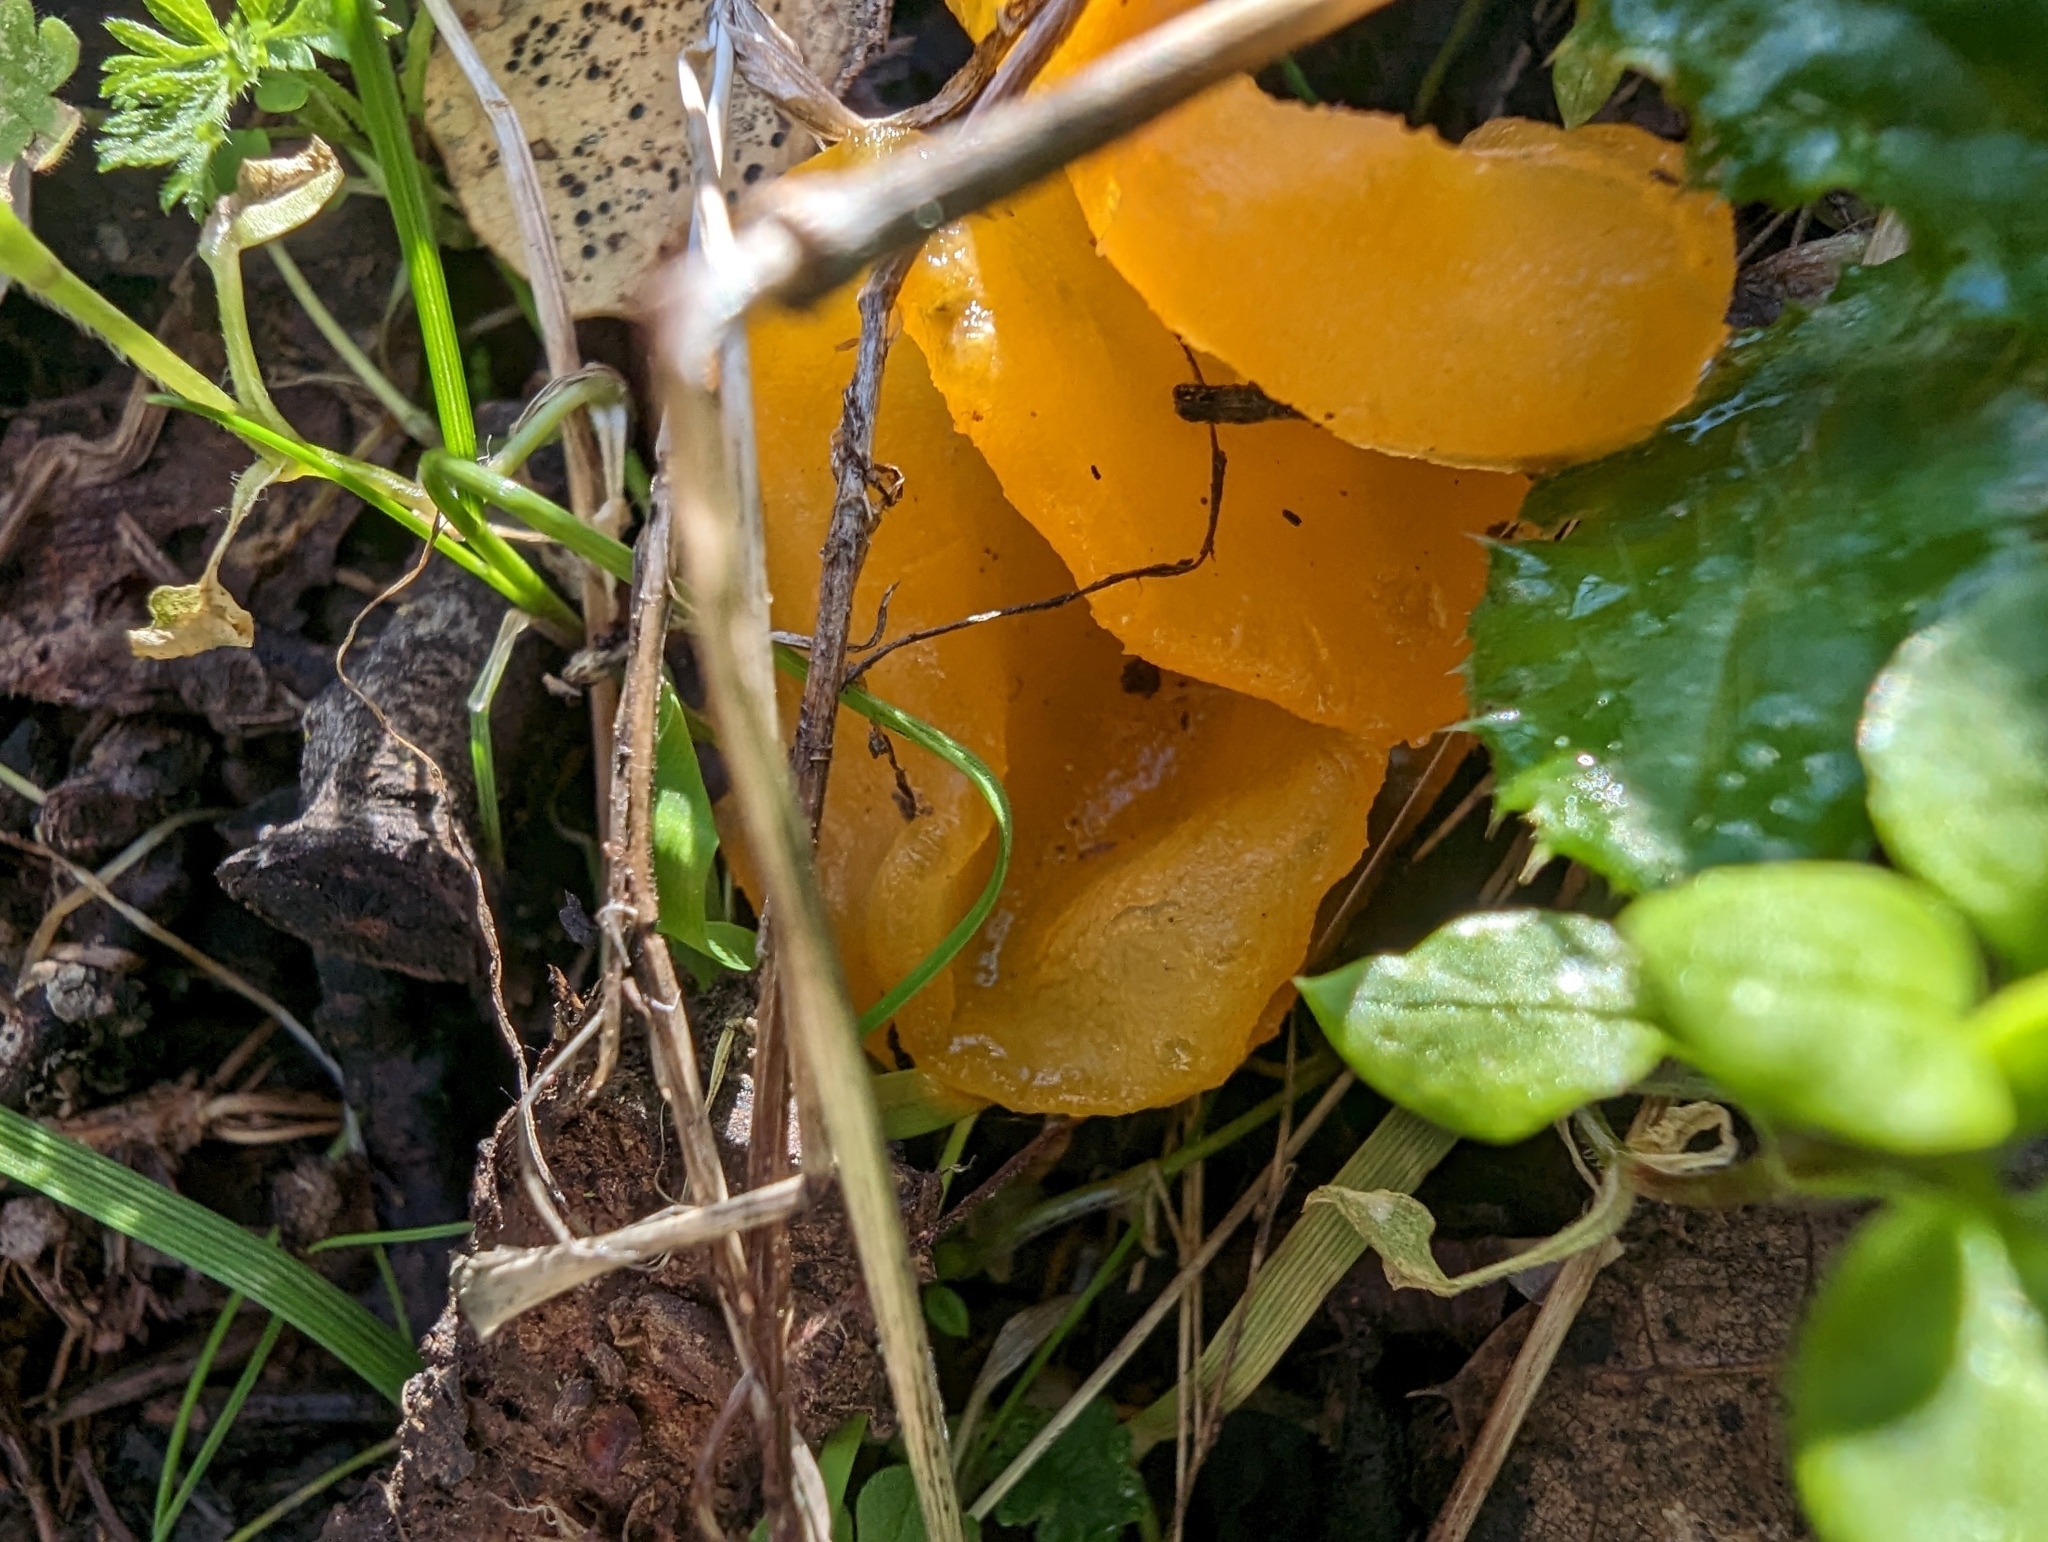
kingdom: Fungi
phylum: Basidiomycota
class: Tremellomycetes
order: Tremellales
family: Naemateliaceae
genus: Naematelia
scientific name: Naematelia aurantia
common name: Golden ear
